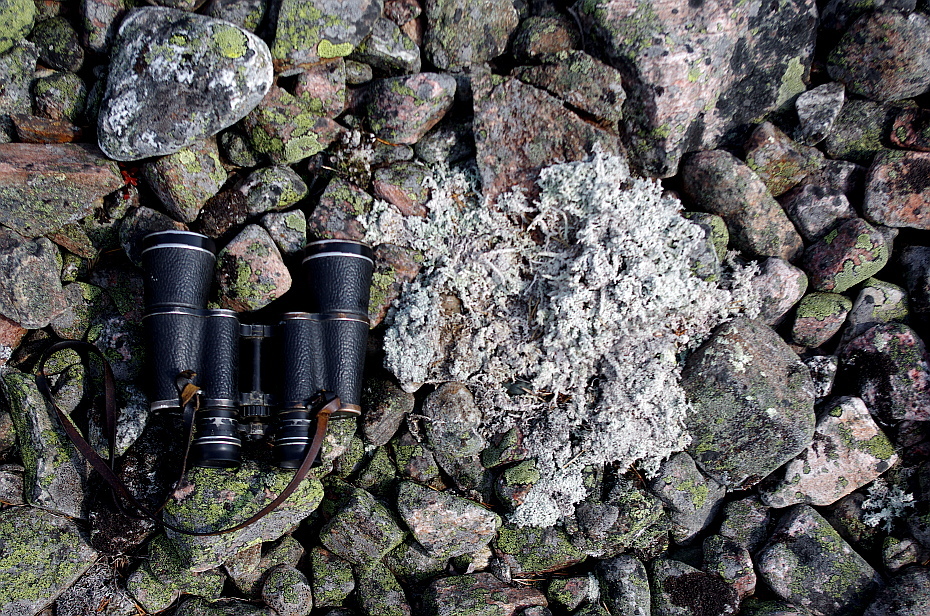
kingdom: Fungi
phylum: Ascomycota
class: Lecanoromycetes
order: Lecanorales
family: Stereocaulaceae
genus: Stereocaulon
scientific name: Stereocaulon
